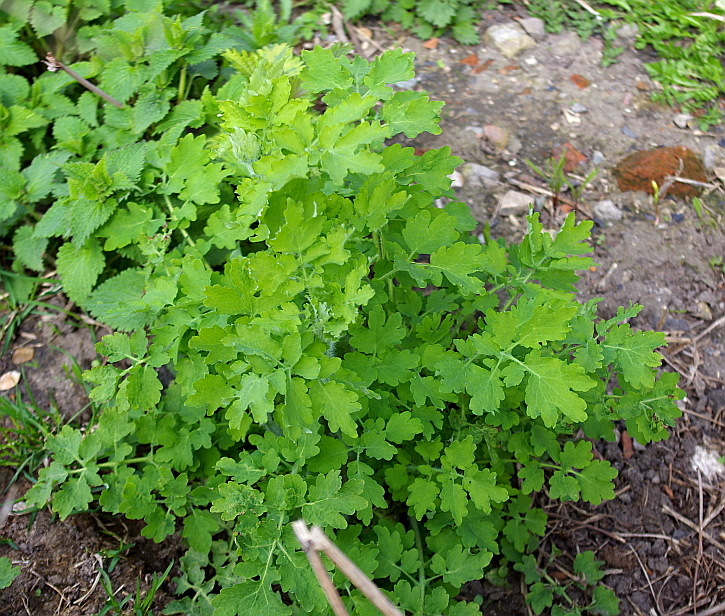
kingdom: Plantae
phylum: Tracheophyta
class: Magnoliopsida
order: Ranunculales
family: Papaveraceae
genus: Chelidonium
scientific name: Chelidonium majus
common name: Greater celandine
